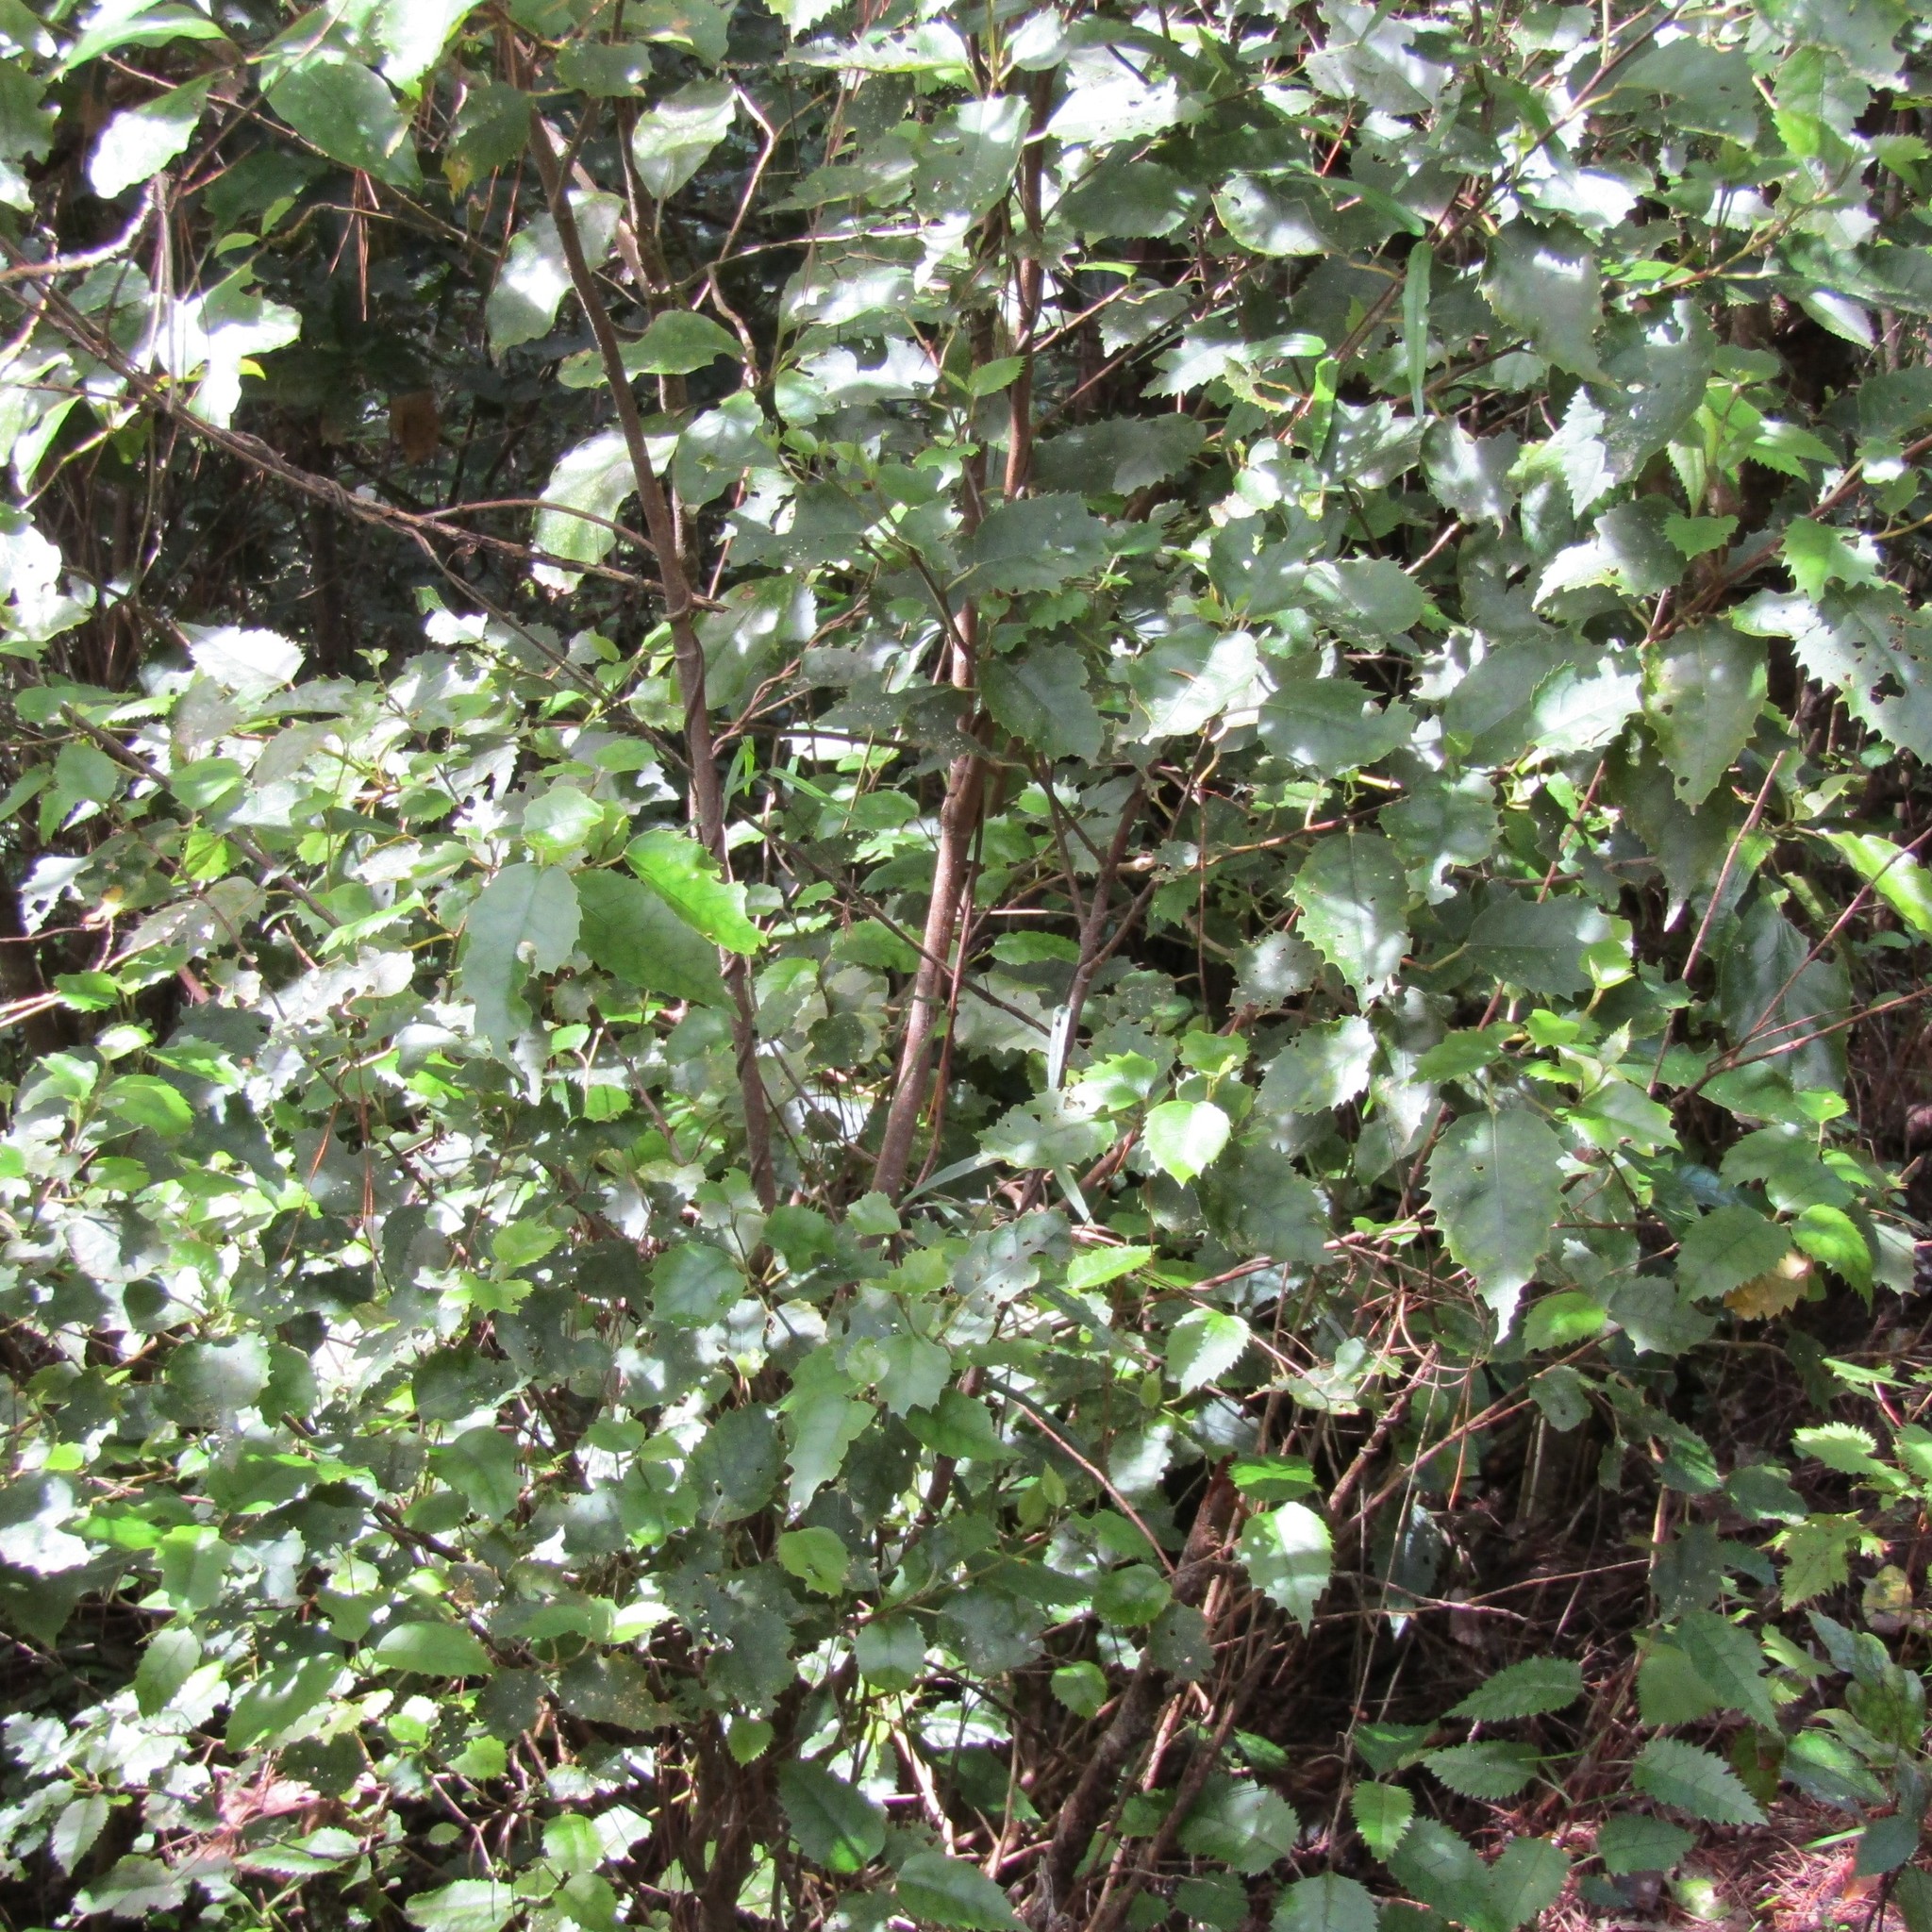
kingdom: Plantae
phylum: Tracheophyta
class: Magnoliopsida
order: Malvales
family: Malvaceae
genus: Hoheria
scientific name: Hoheria populnea
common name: Lacebark
